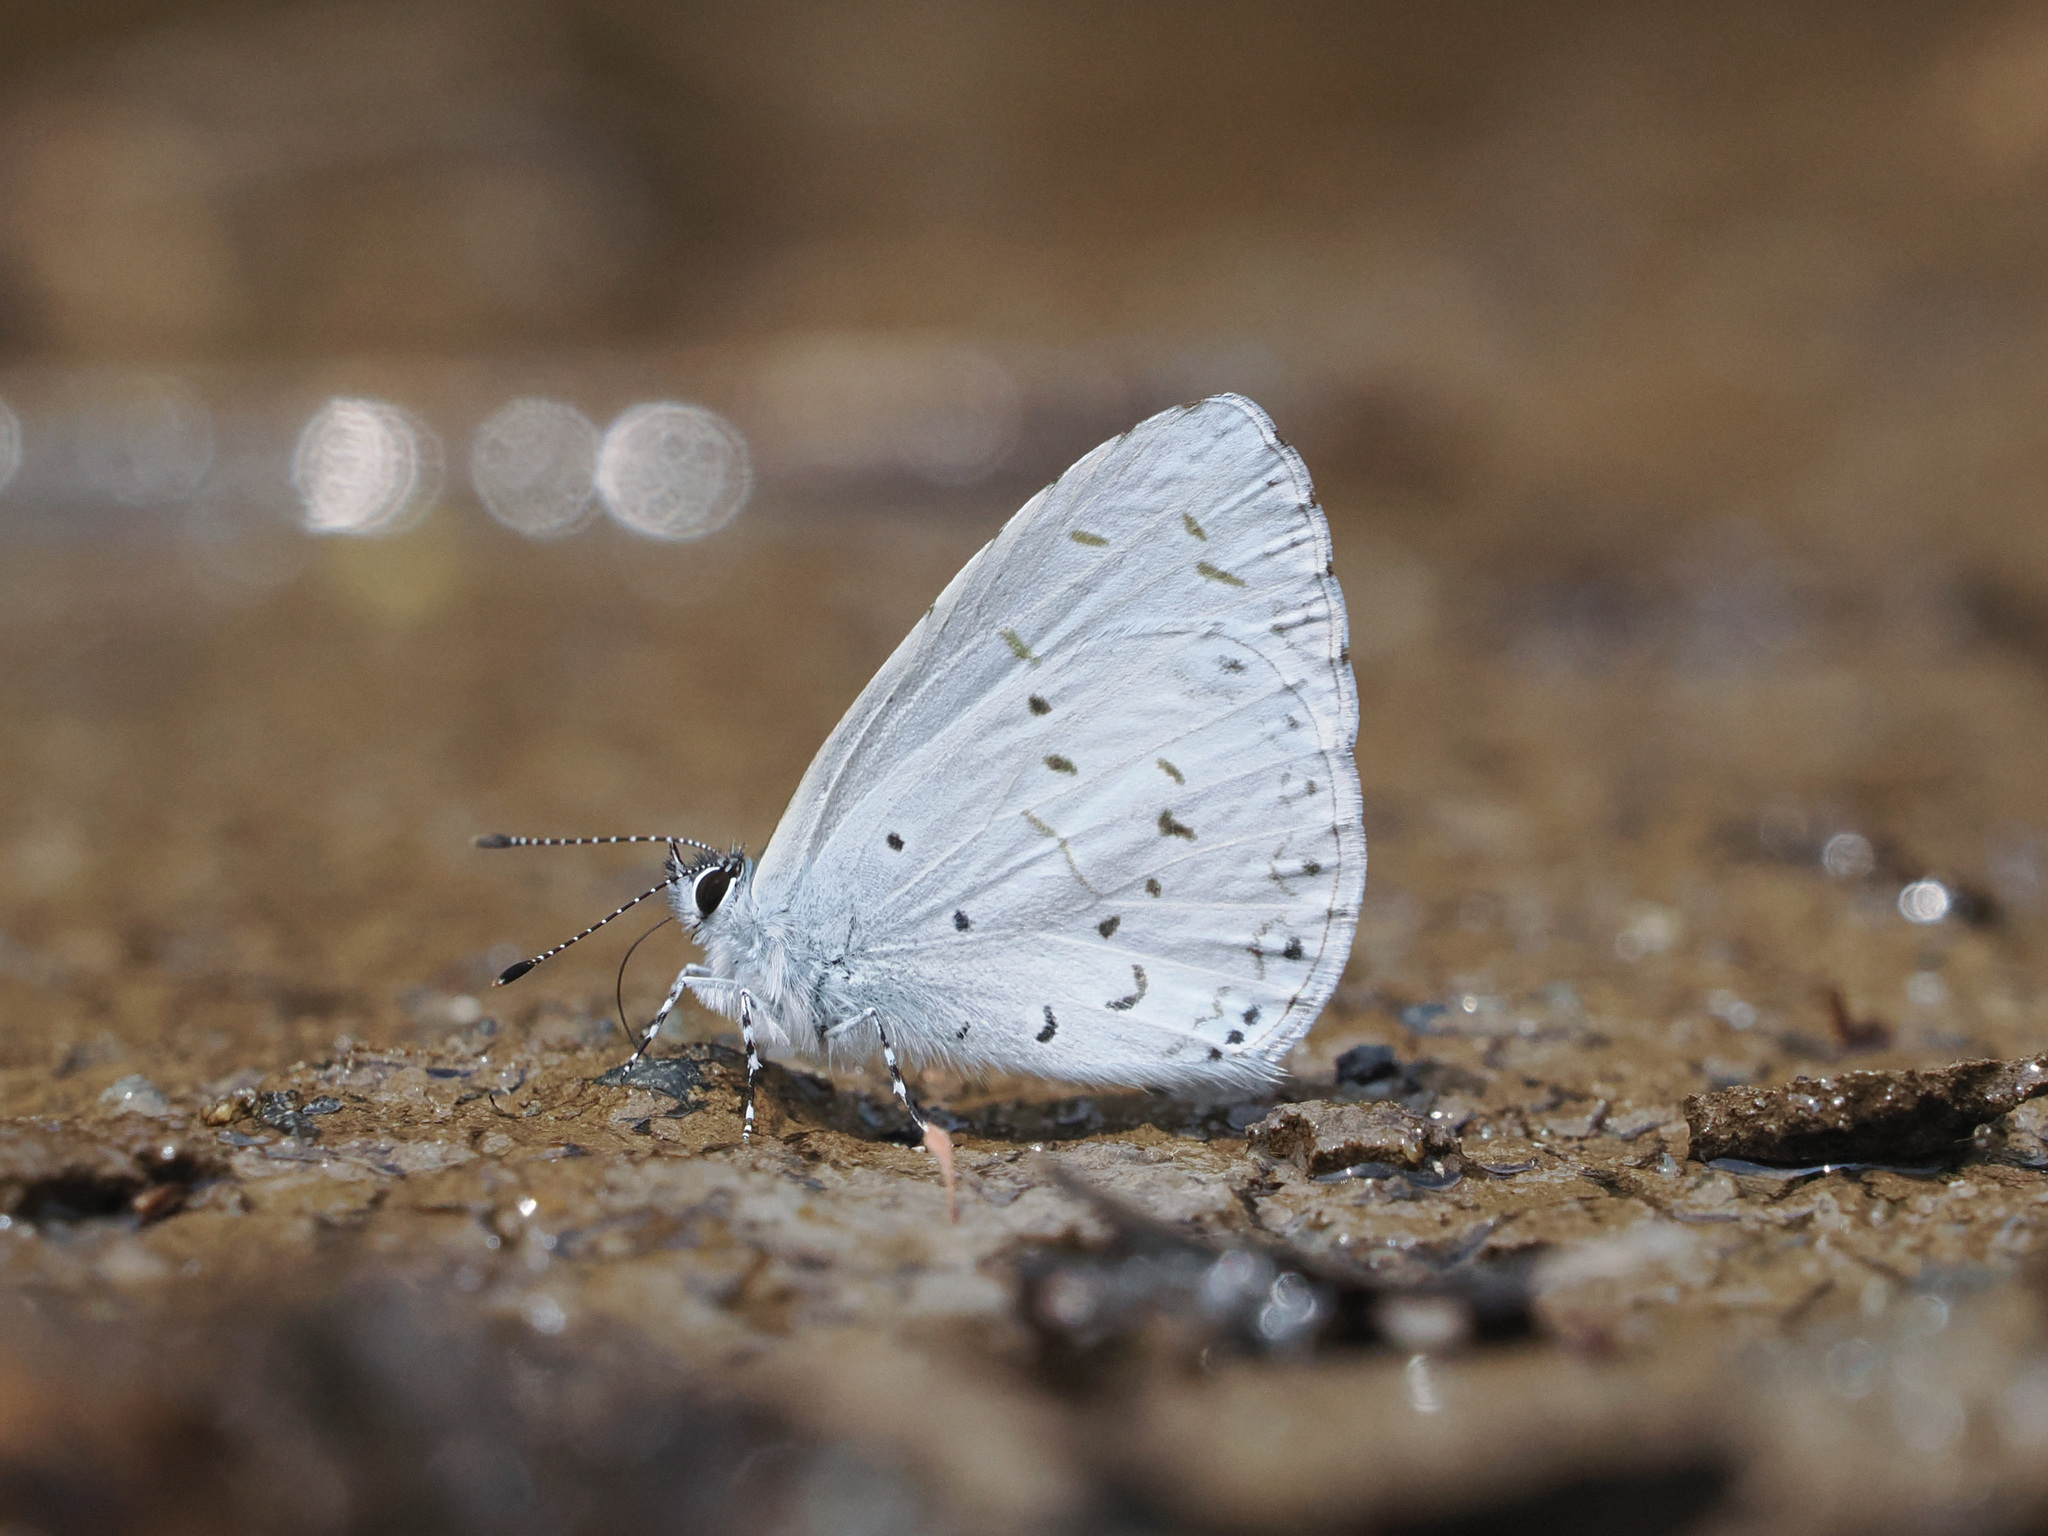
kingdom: Animalia
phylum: Arthropoda
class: Insecta
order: Lepidoptera
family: Lycaenidae
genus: Udara
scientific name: Udara dilectus
